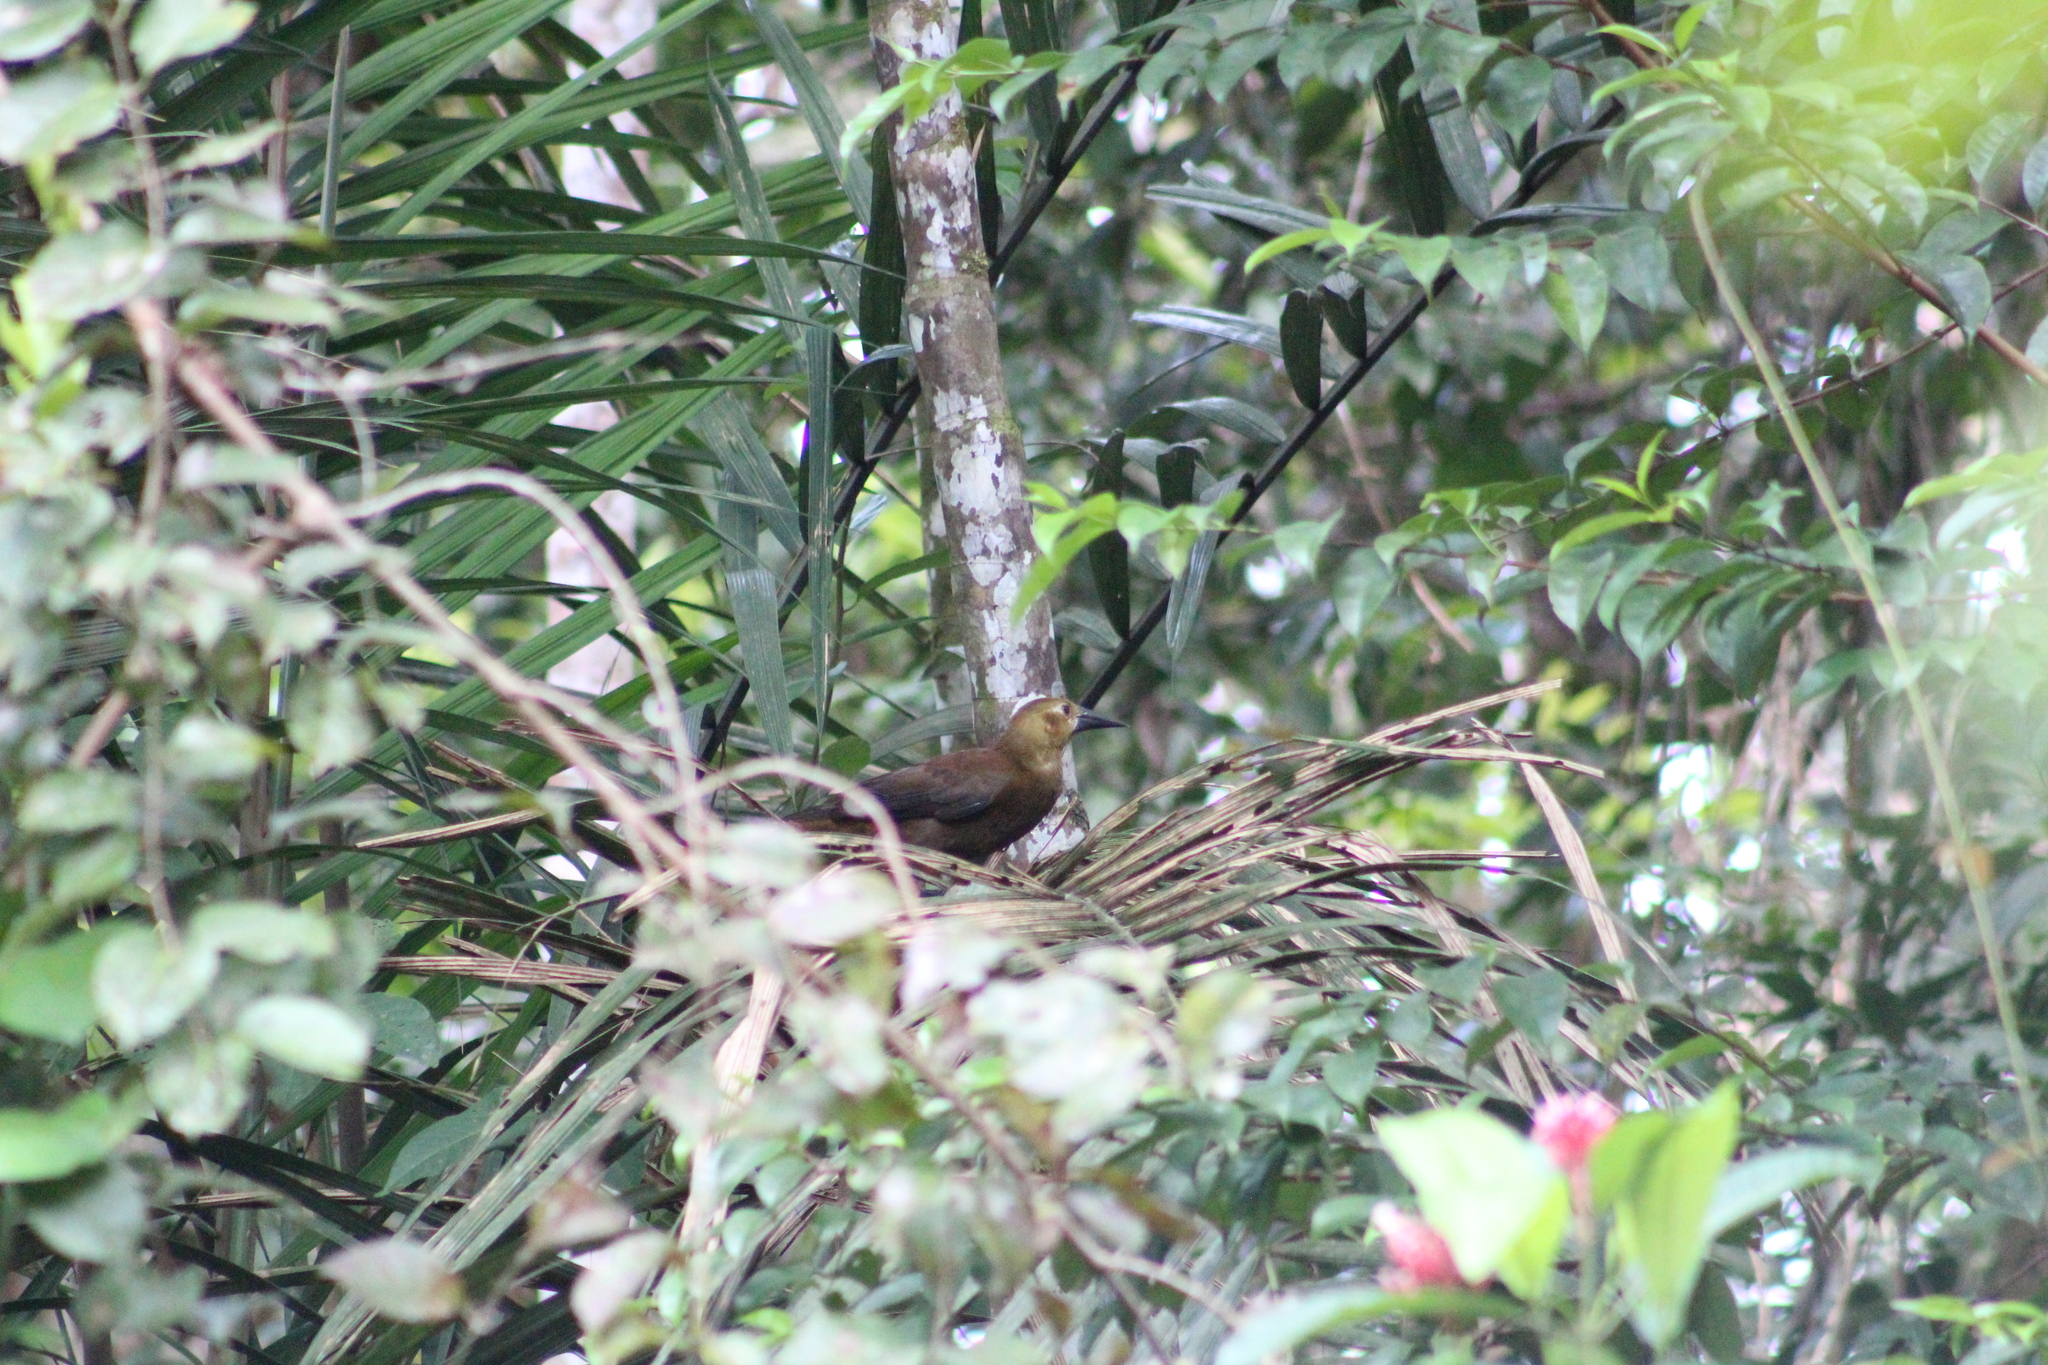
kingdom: Animalia
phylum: Chordata
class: Aves
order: Passeriformes
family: Icteridae
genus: Psarocolius
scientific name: Psarocolius angustifrons
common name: Russet-backed oropendola
